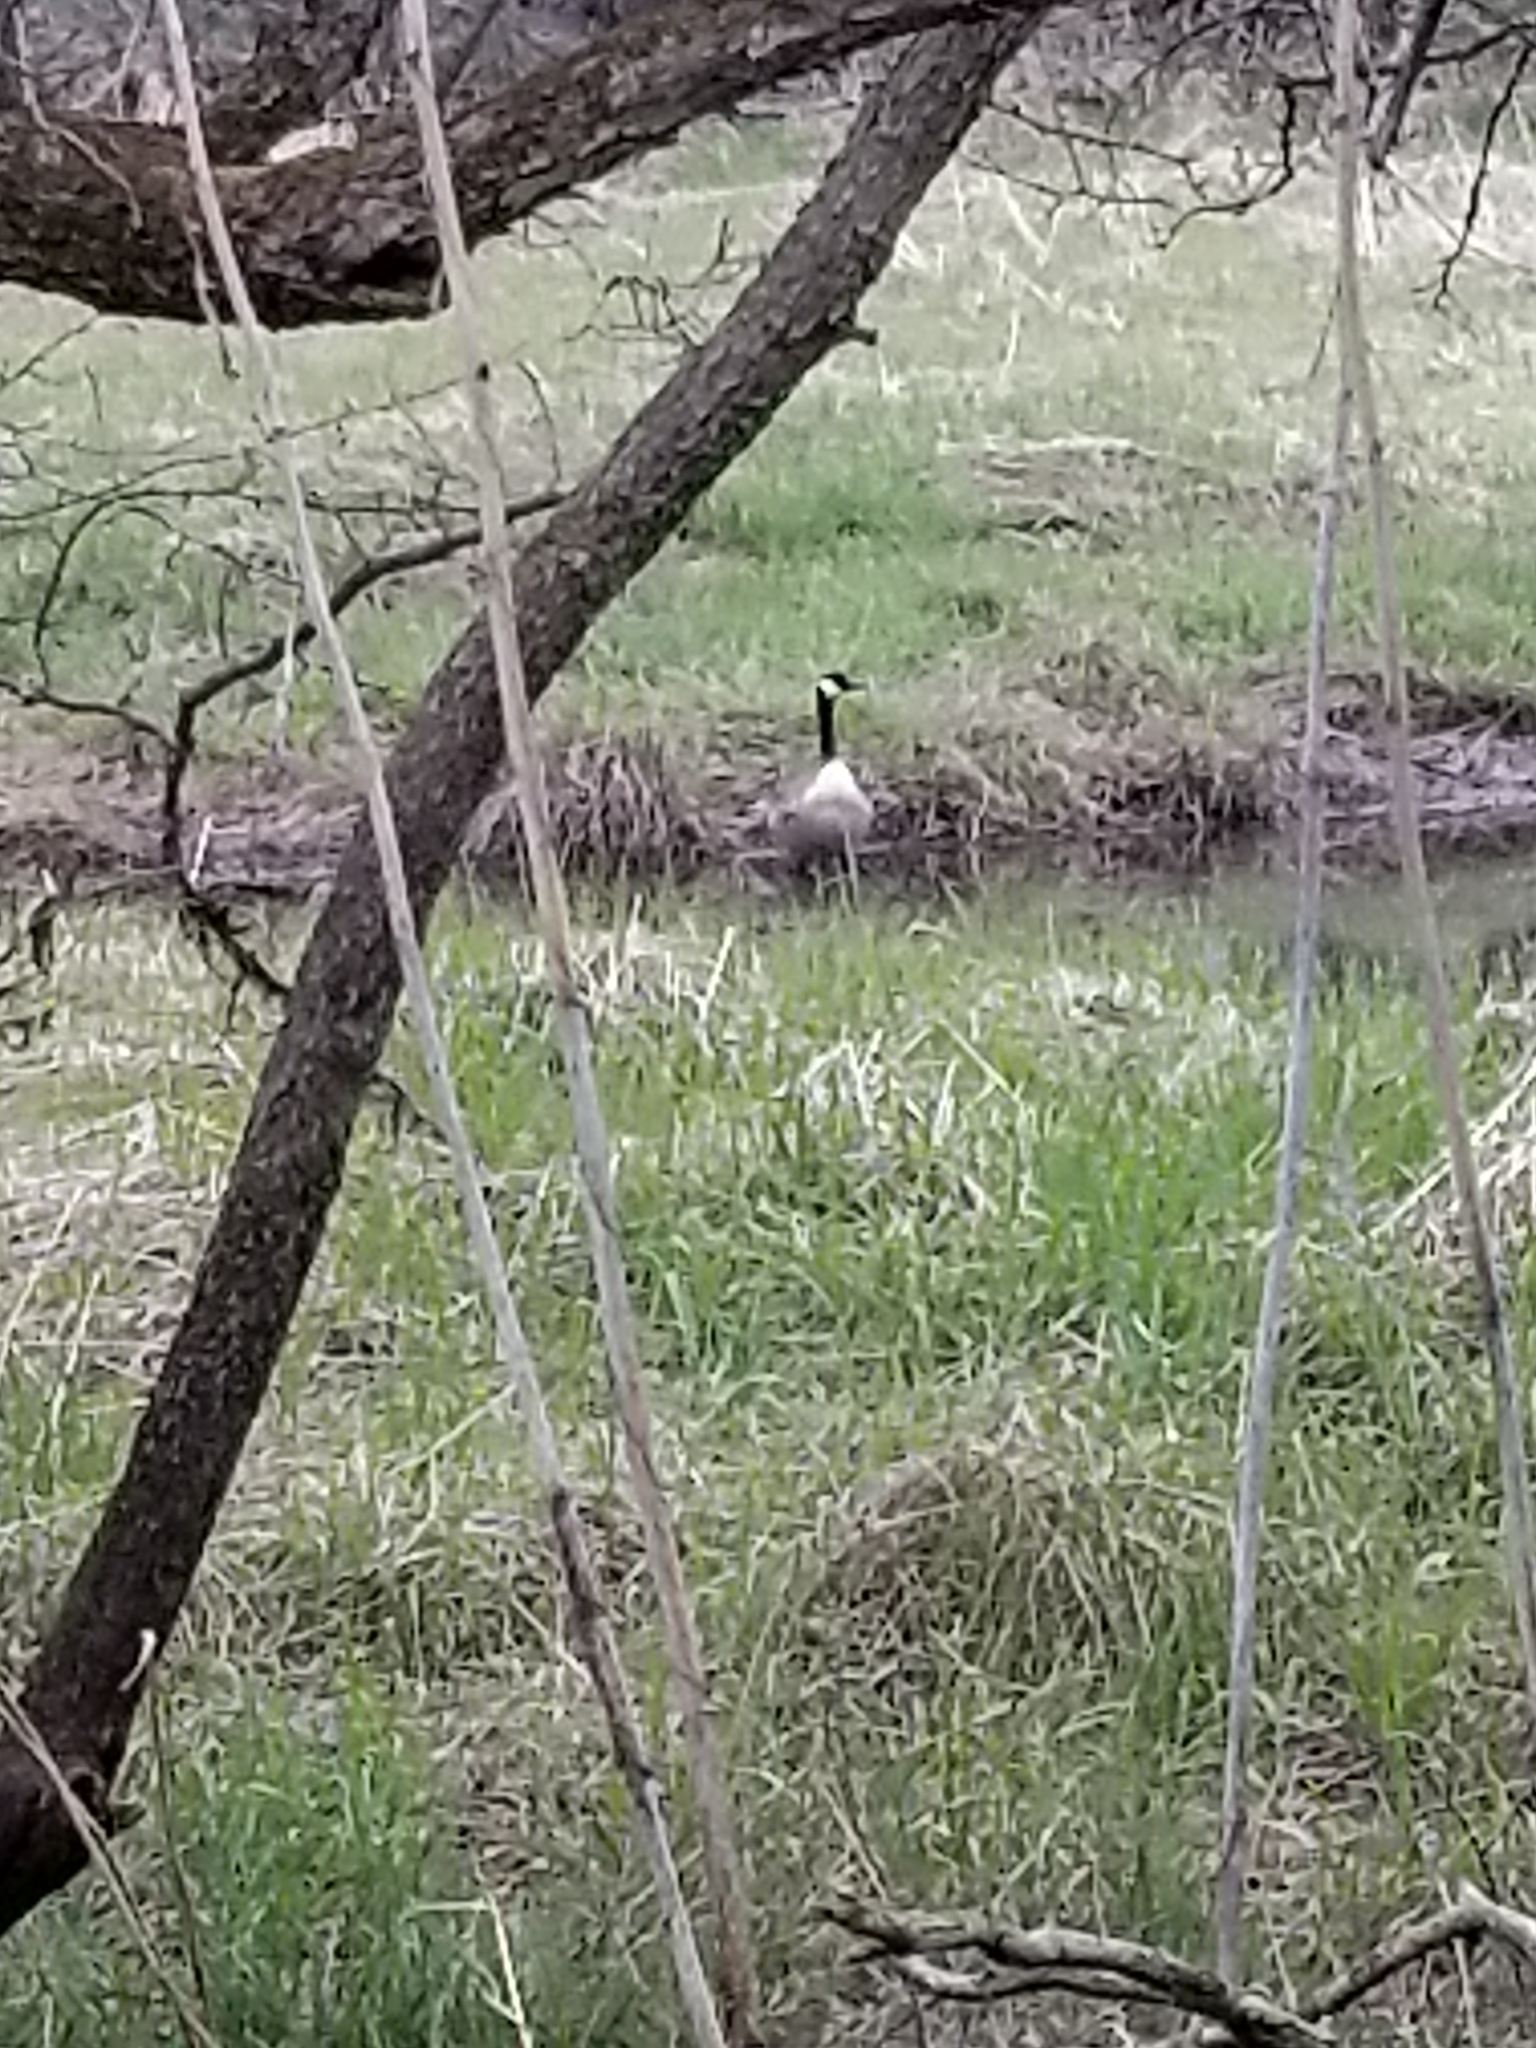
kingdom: Animalia
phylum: Chordata
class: Aves
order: Anseriformes
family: Anatidae
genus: Branta
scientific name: Branta canadensis
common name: Canada goose
